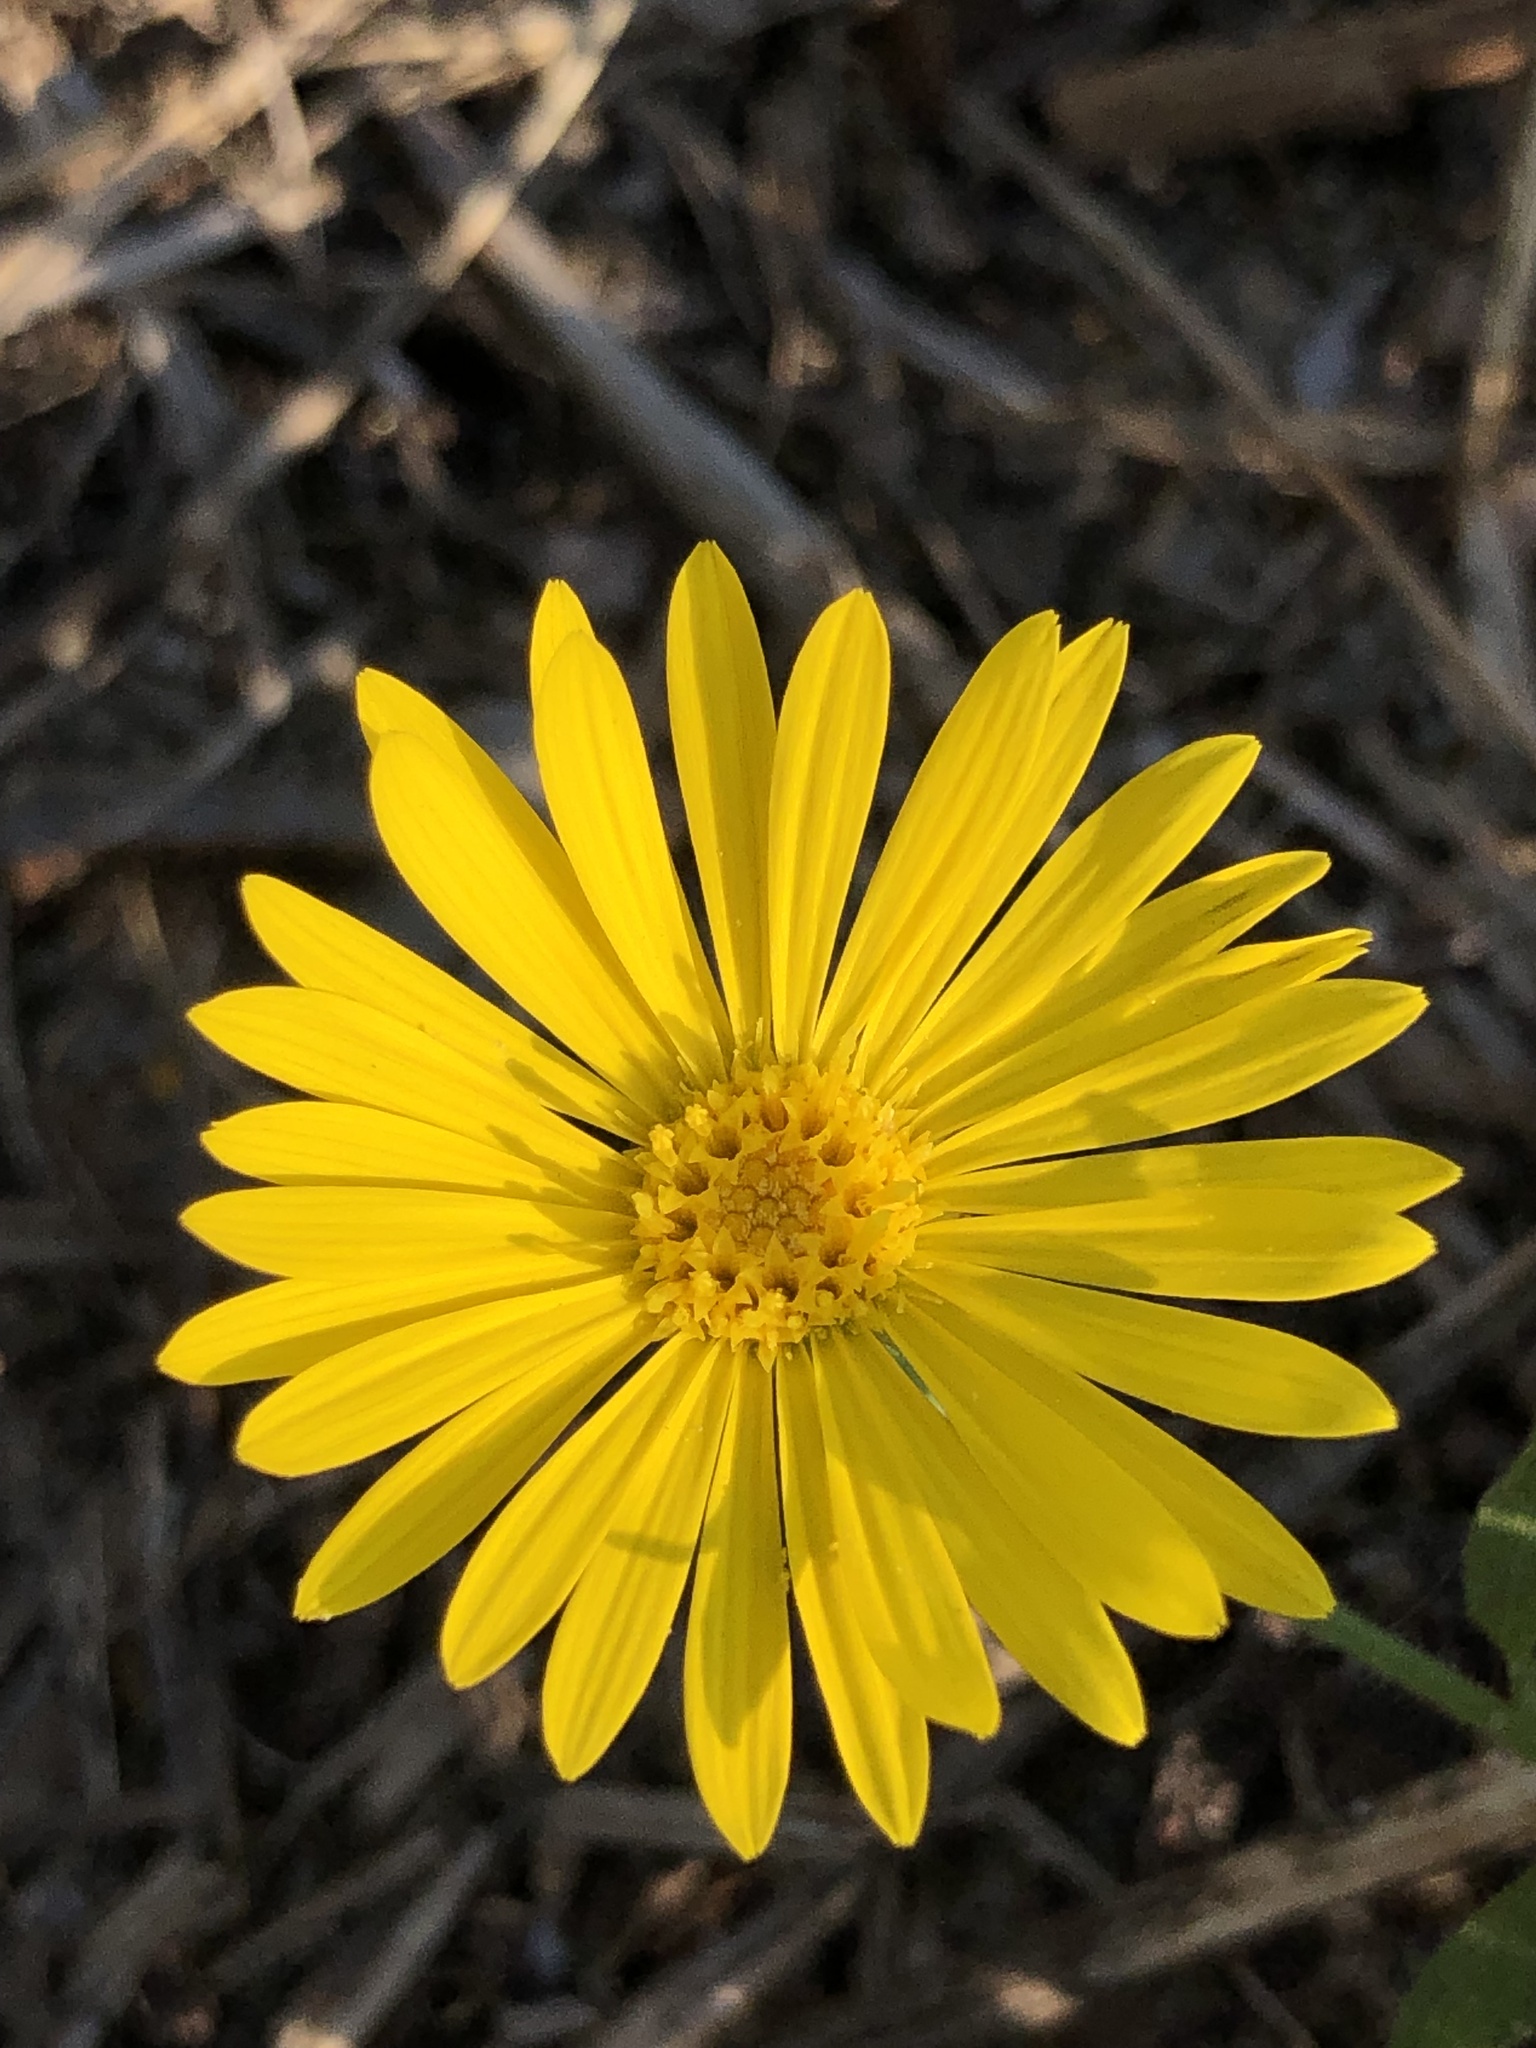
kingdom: Plantae
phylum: Tracheophyta
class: Magnoliopsida
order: Asterales
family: Asteraceae
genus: Heterotheca
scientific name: Heterotheca subaxillaris
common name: Camphorweed
